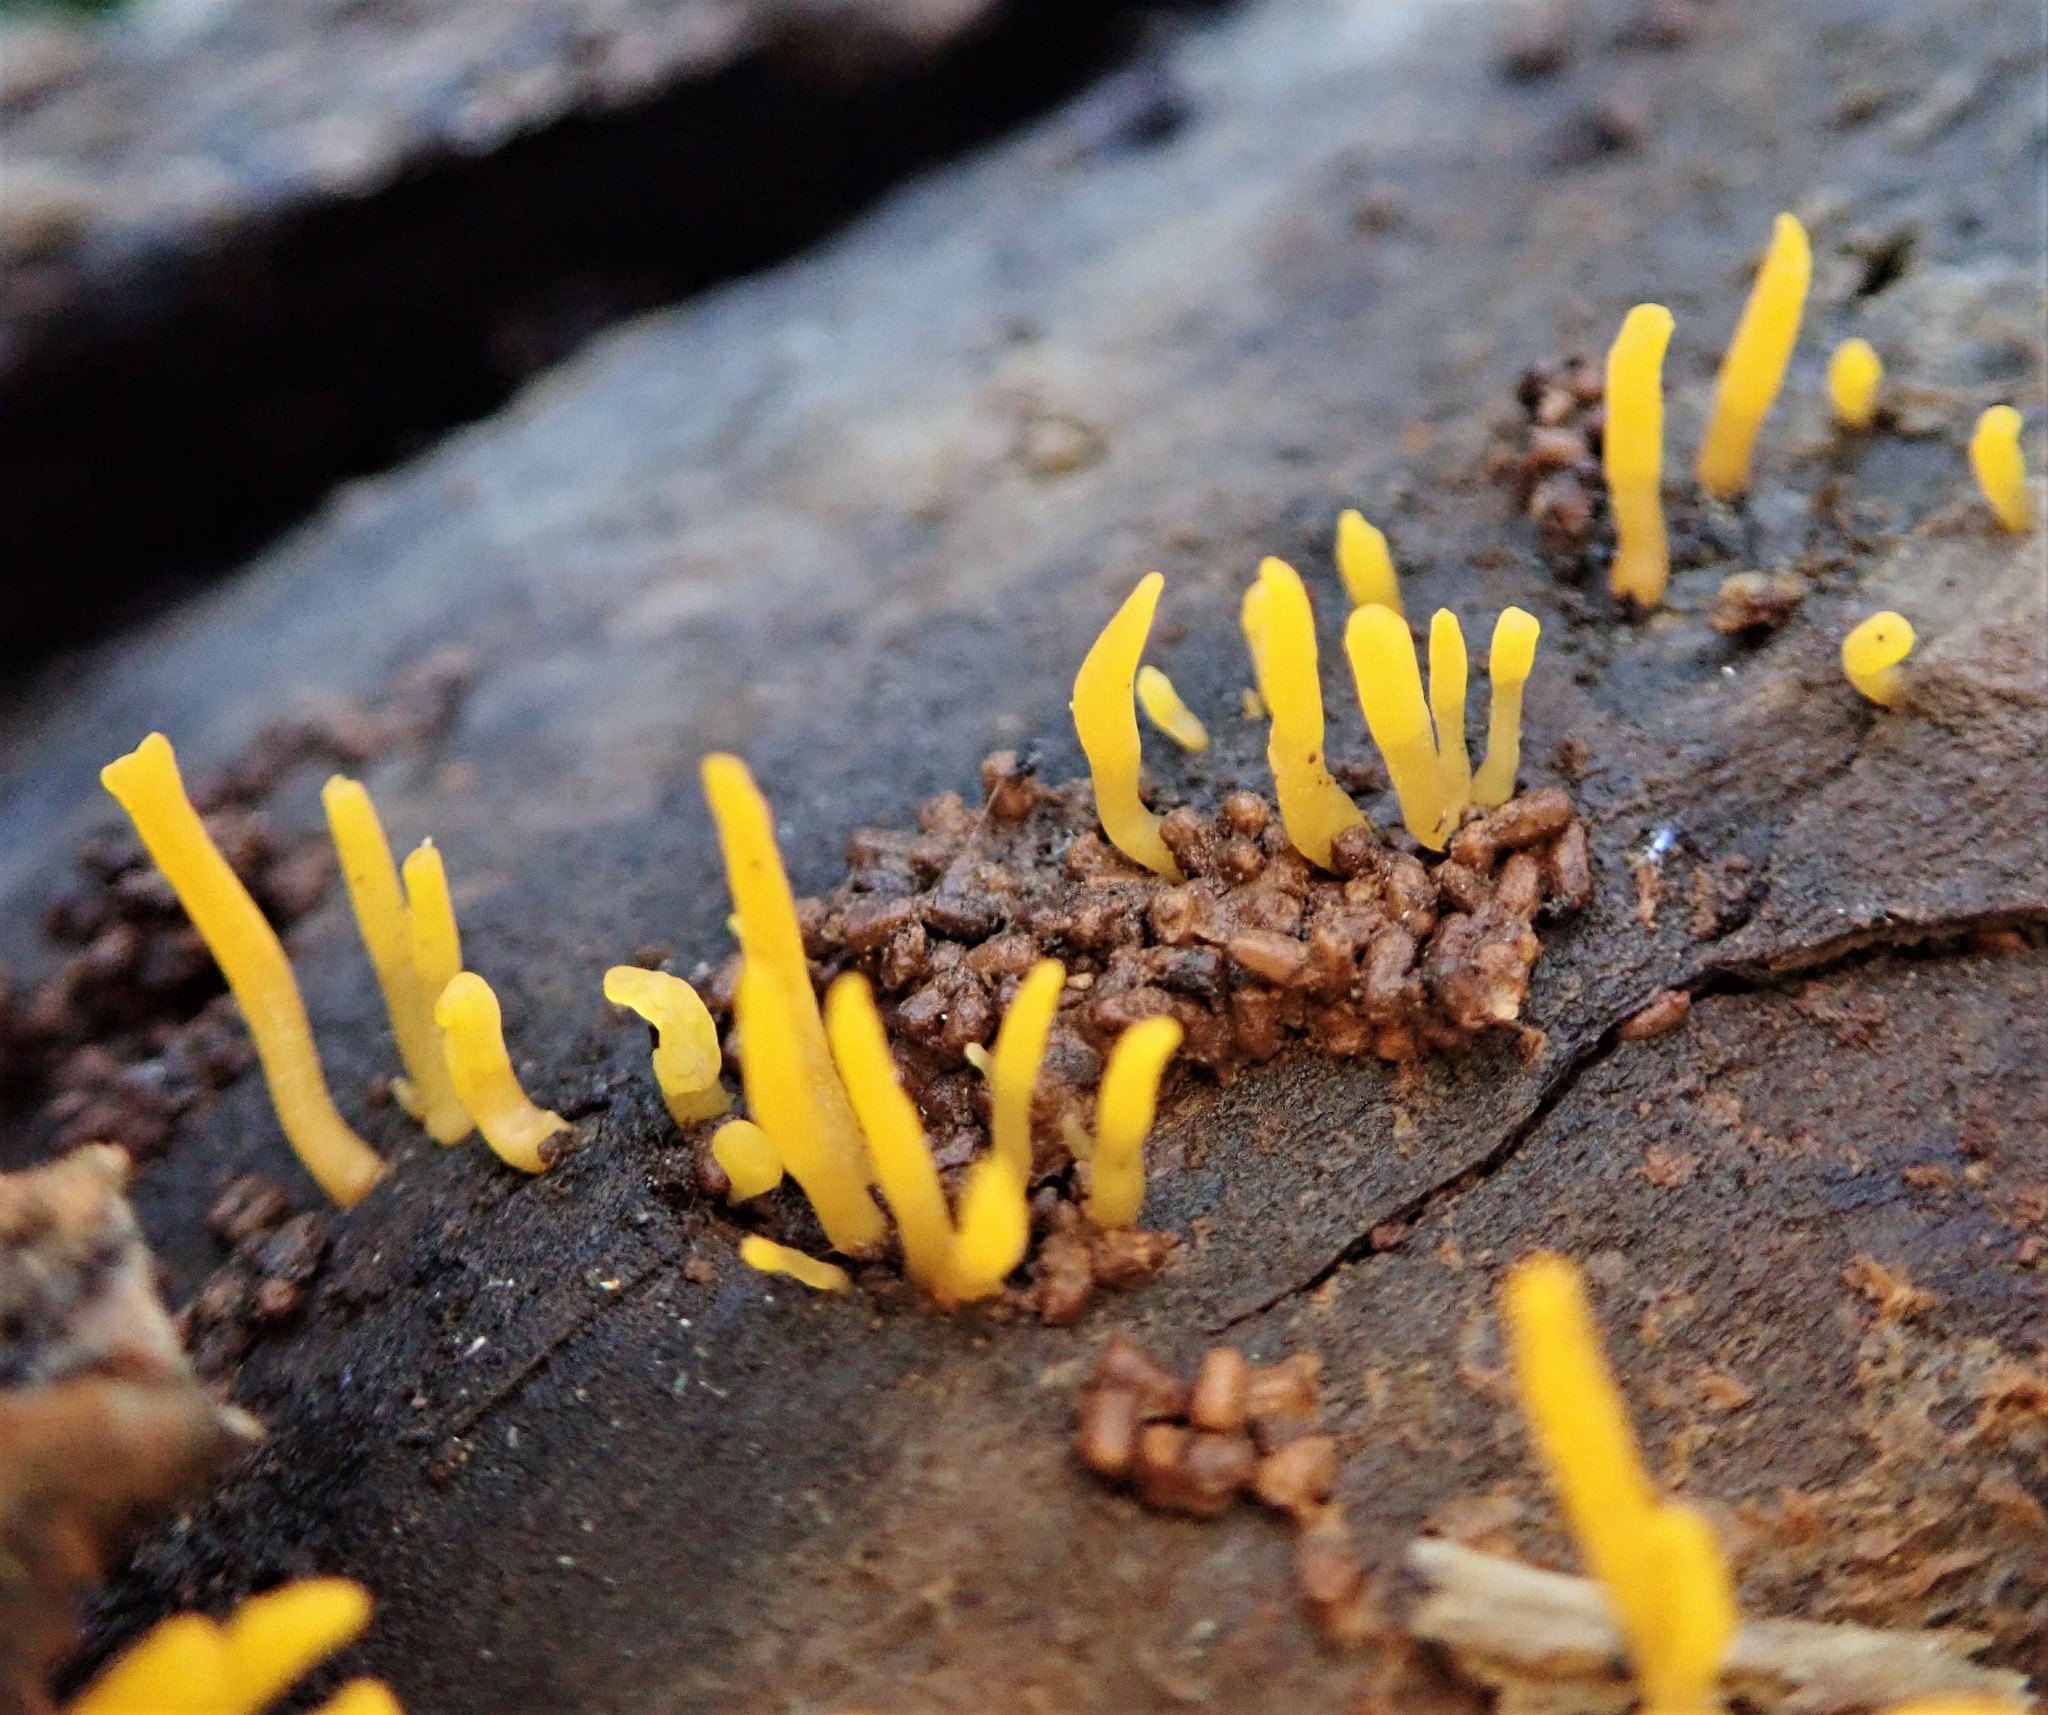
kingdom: Fungi
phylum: Basidiomycota
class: Dacrymycetes
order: Dacrymycetales
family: Dacrymycetaceae
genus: Calocera
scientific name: Calocera cornea
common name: Small stagshorn
